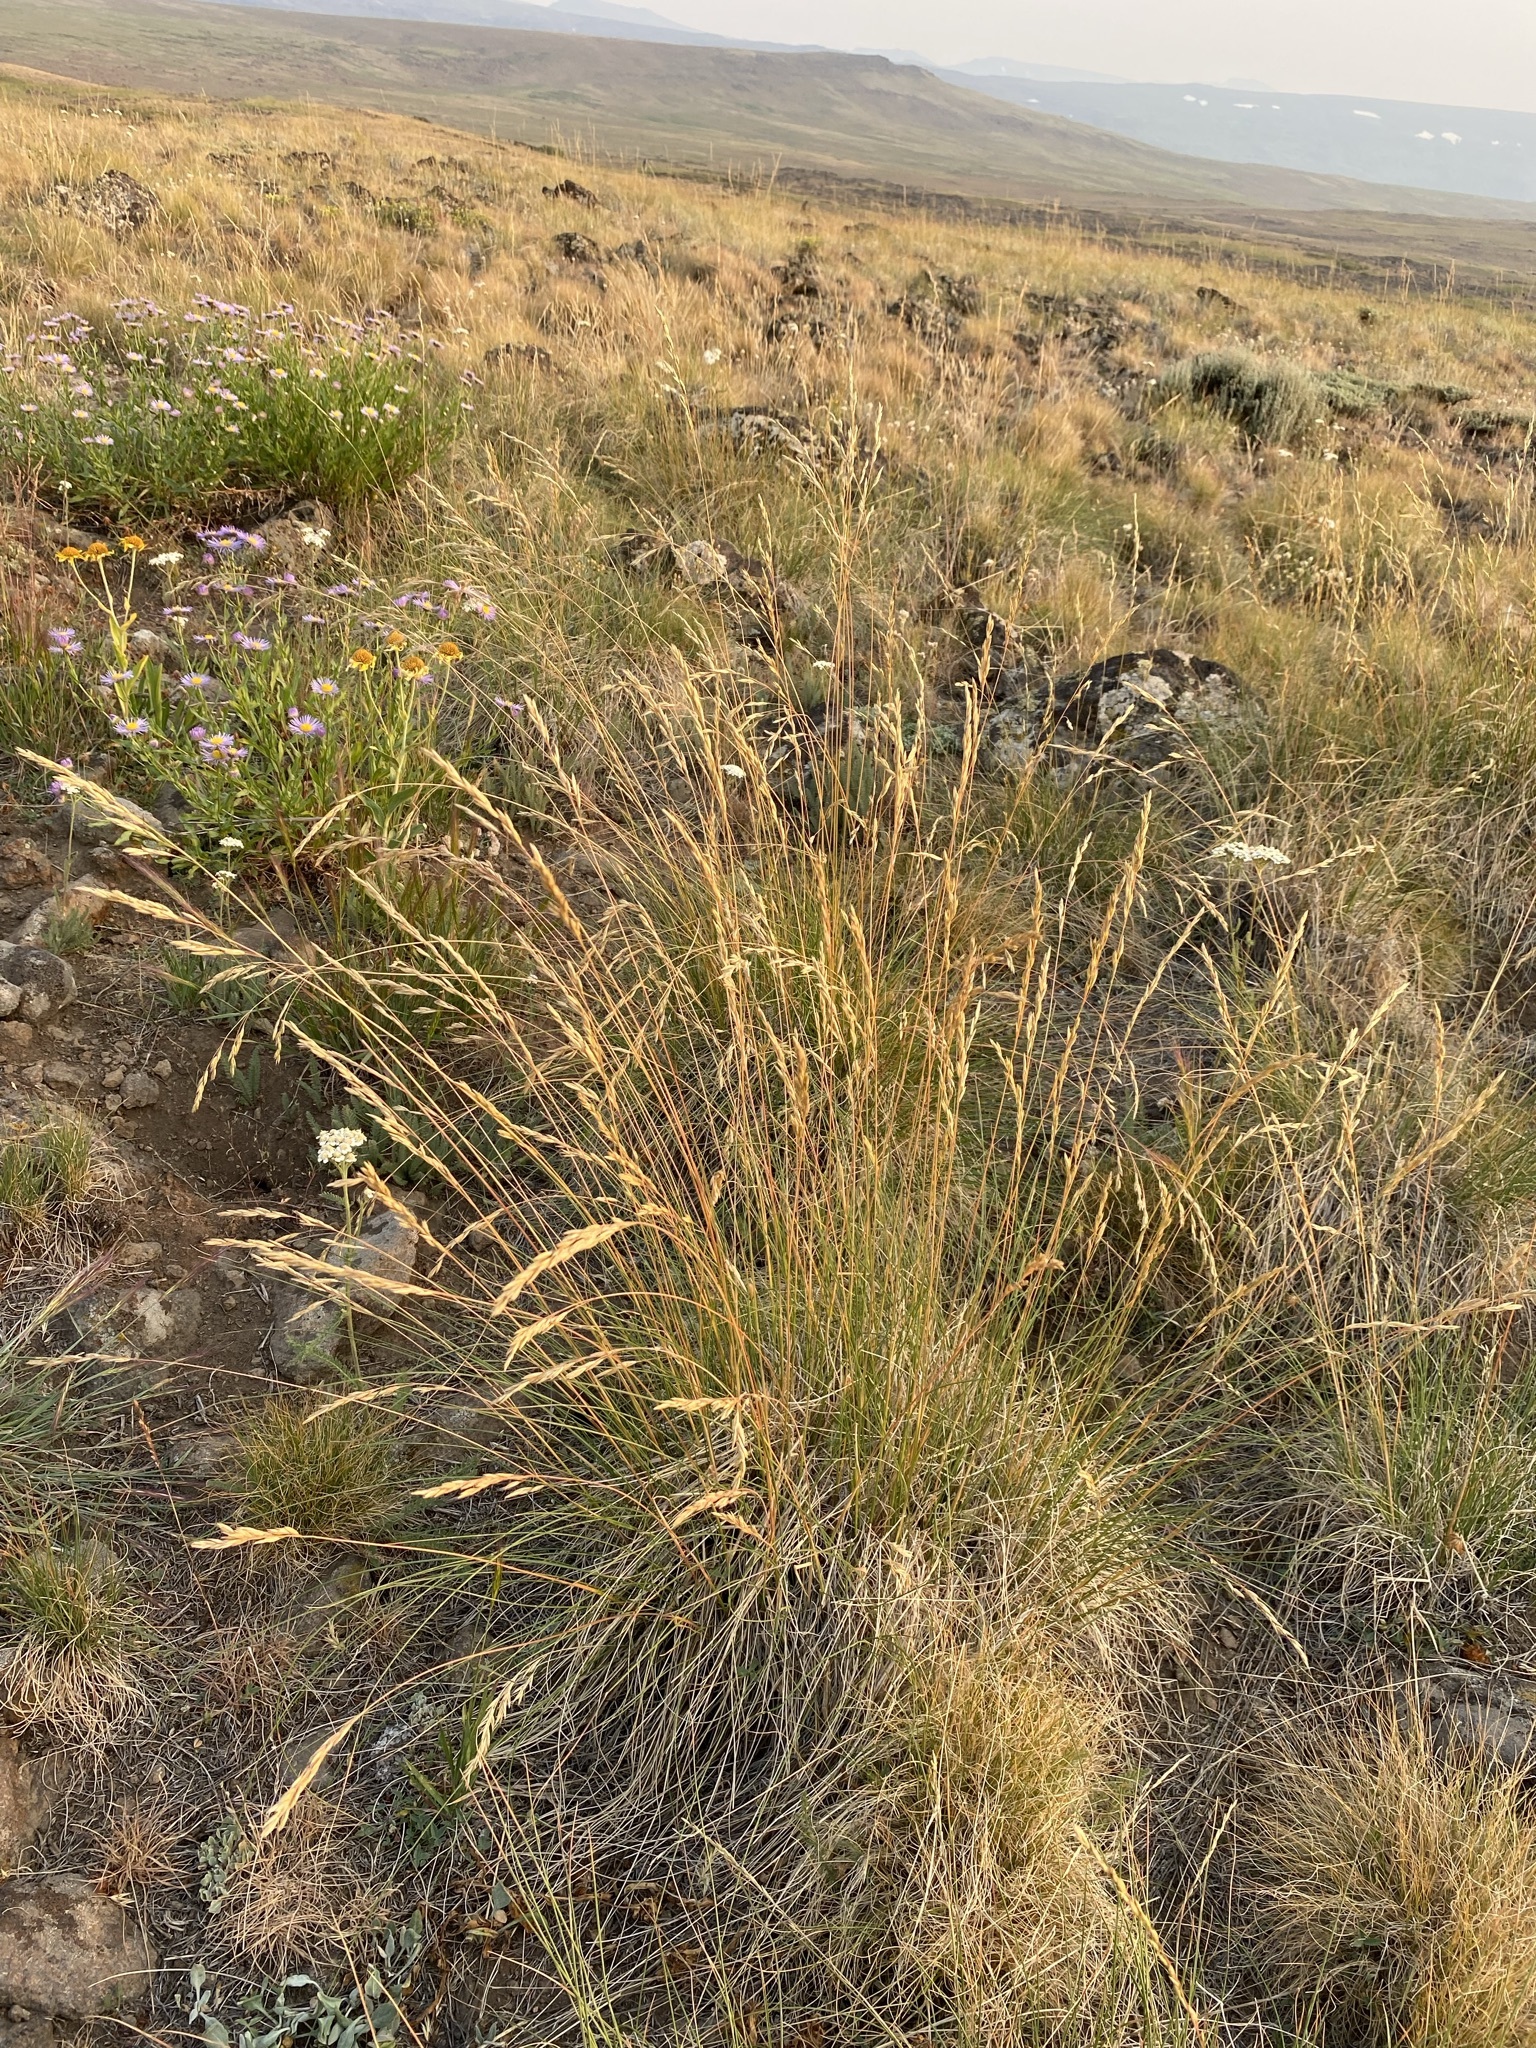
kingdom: Plantae
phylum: Tracheophyta
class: Liliopsida
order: Poales
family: Poaceae
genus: Festuca
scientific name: Festuca campestris
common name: Mountain rough fescue
